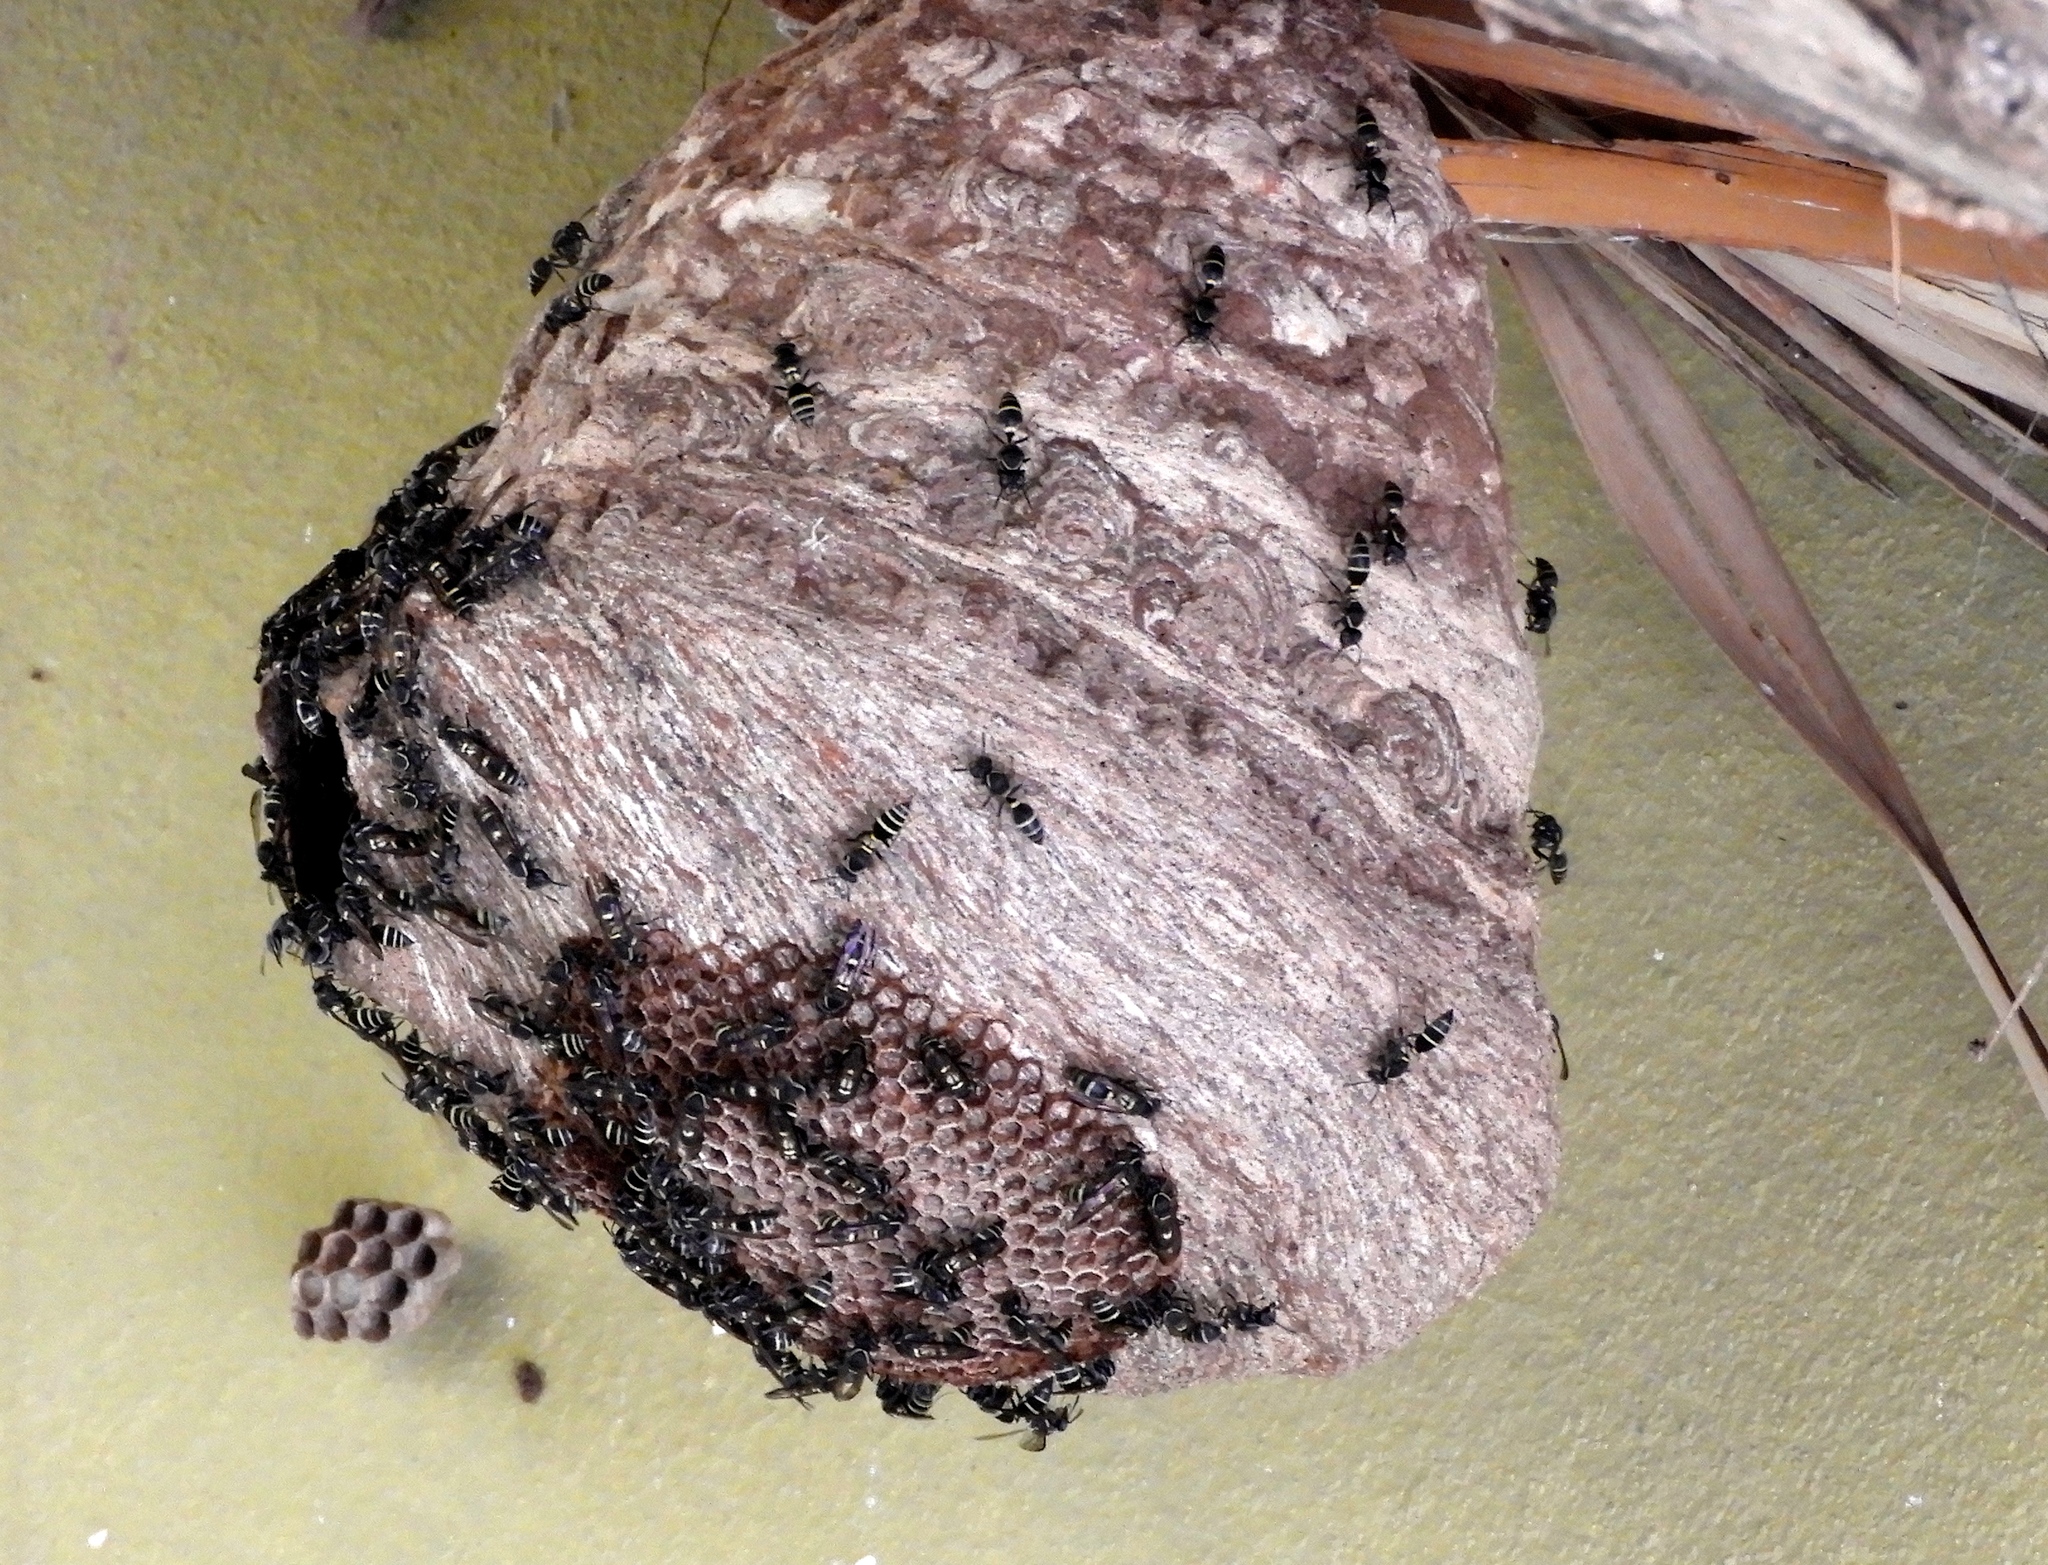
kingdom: Animalia
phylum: Arthropoda
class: Insecta
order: Hymenoptera
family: Eumenidae
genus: Polybia
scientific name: Polybia plebeja
